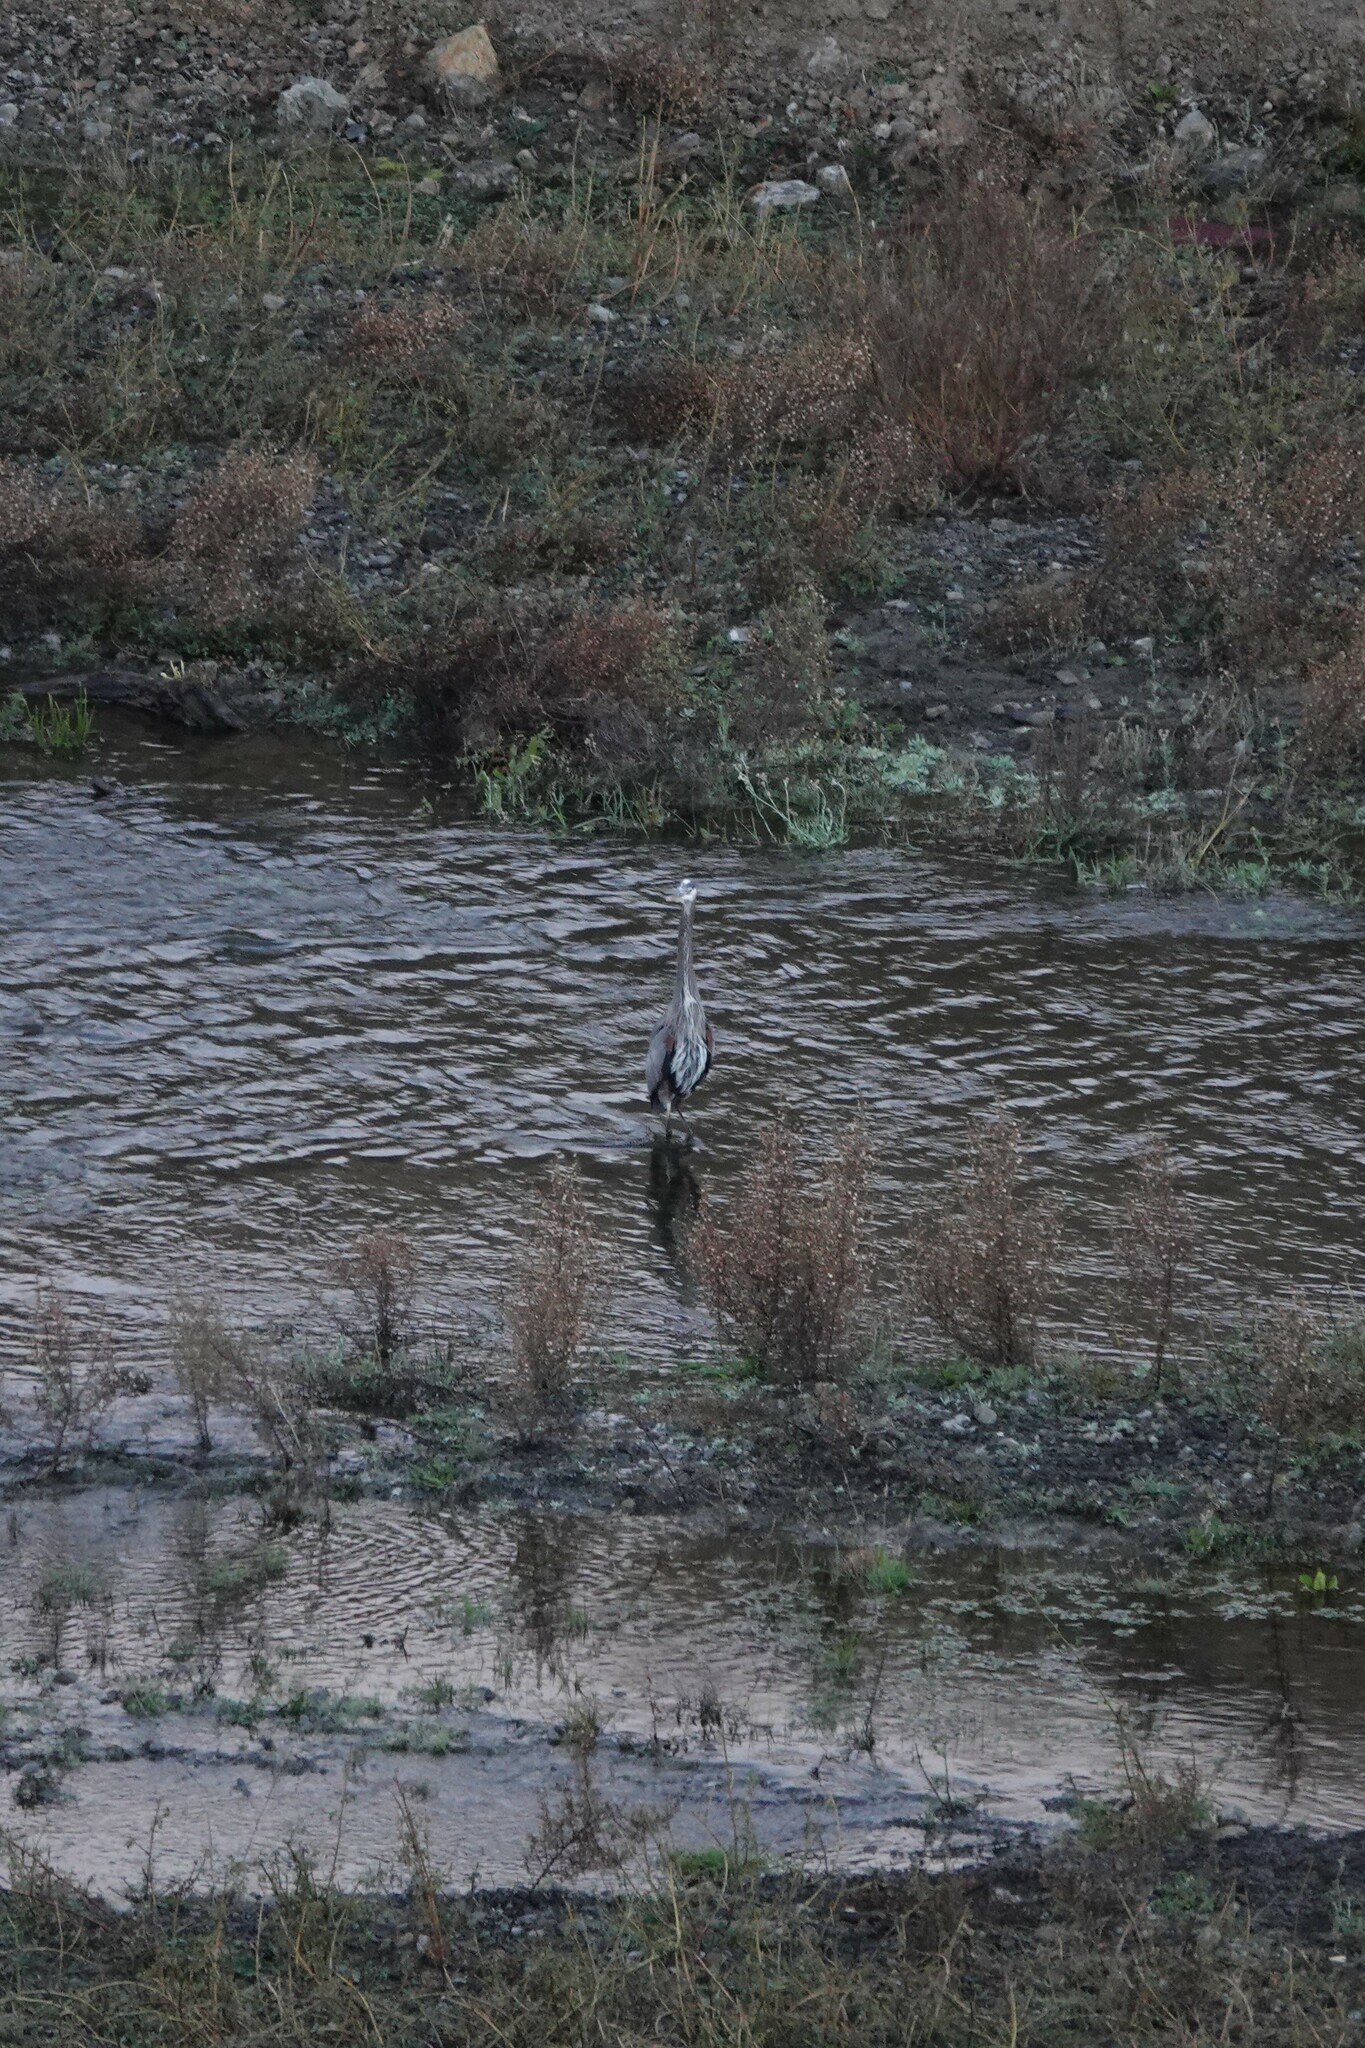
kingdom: Animalia
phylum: Chordata
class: Aves
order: Pelecaniformes
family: Ardeidae
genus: Ardea
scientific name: Ardea herodias
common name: Great blue heron
